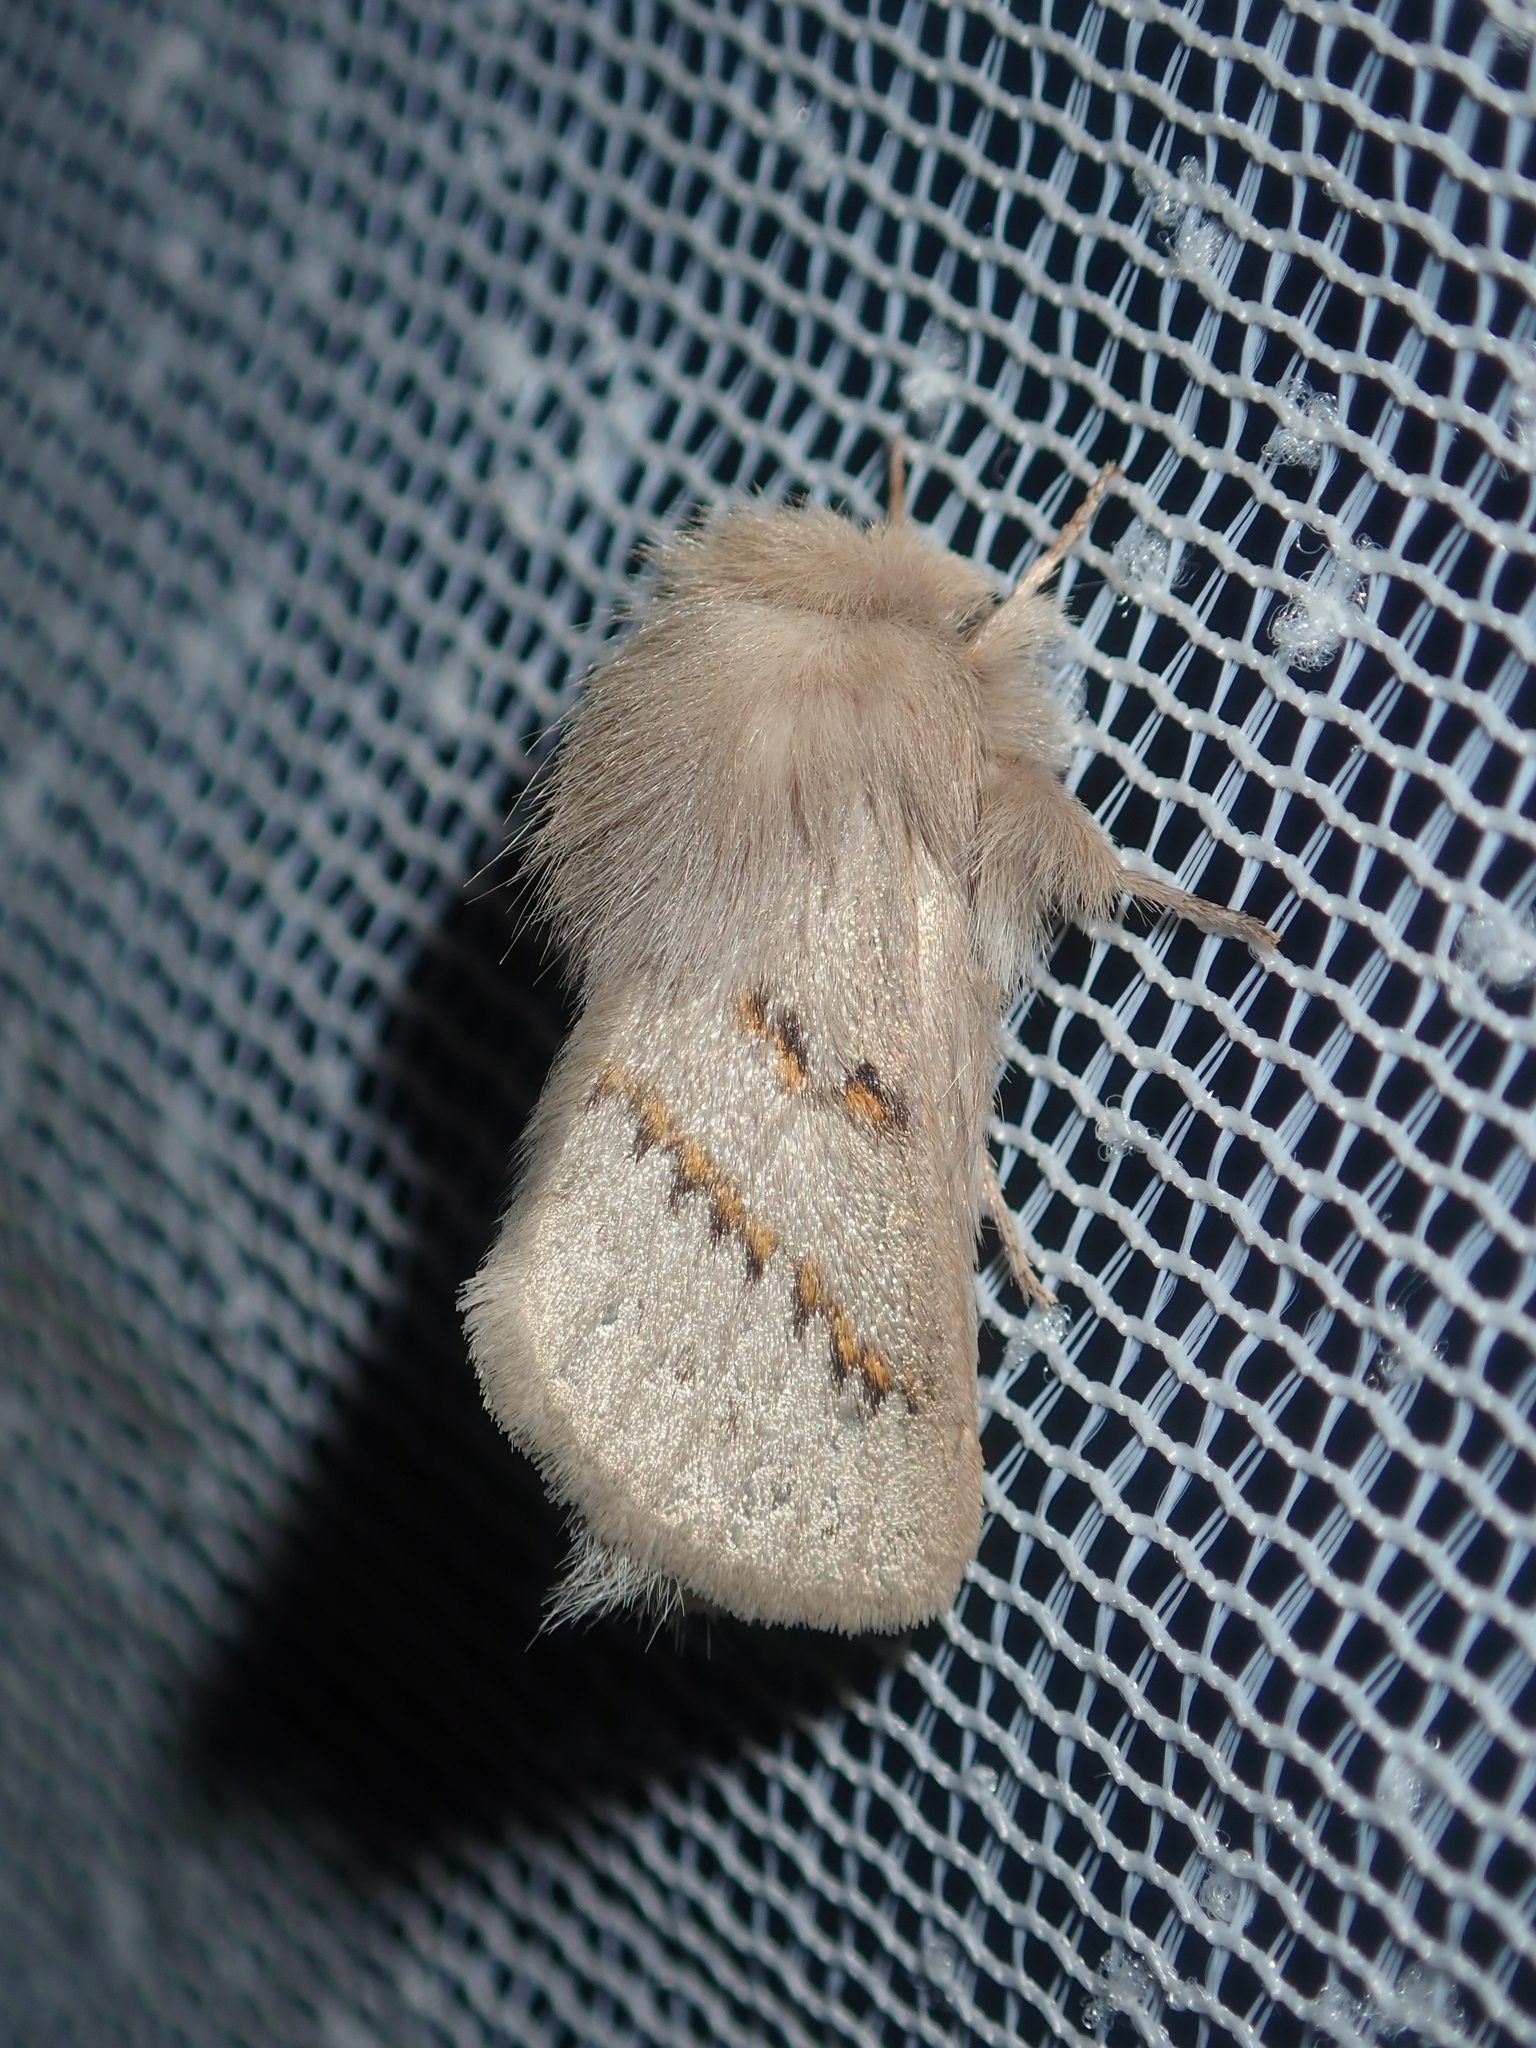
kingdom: Animalia
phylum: Arthropoda
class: Insecta
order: Lepidoptera
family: Lasiocampidae
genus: Eremaea
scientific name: Eremaea zonospila
